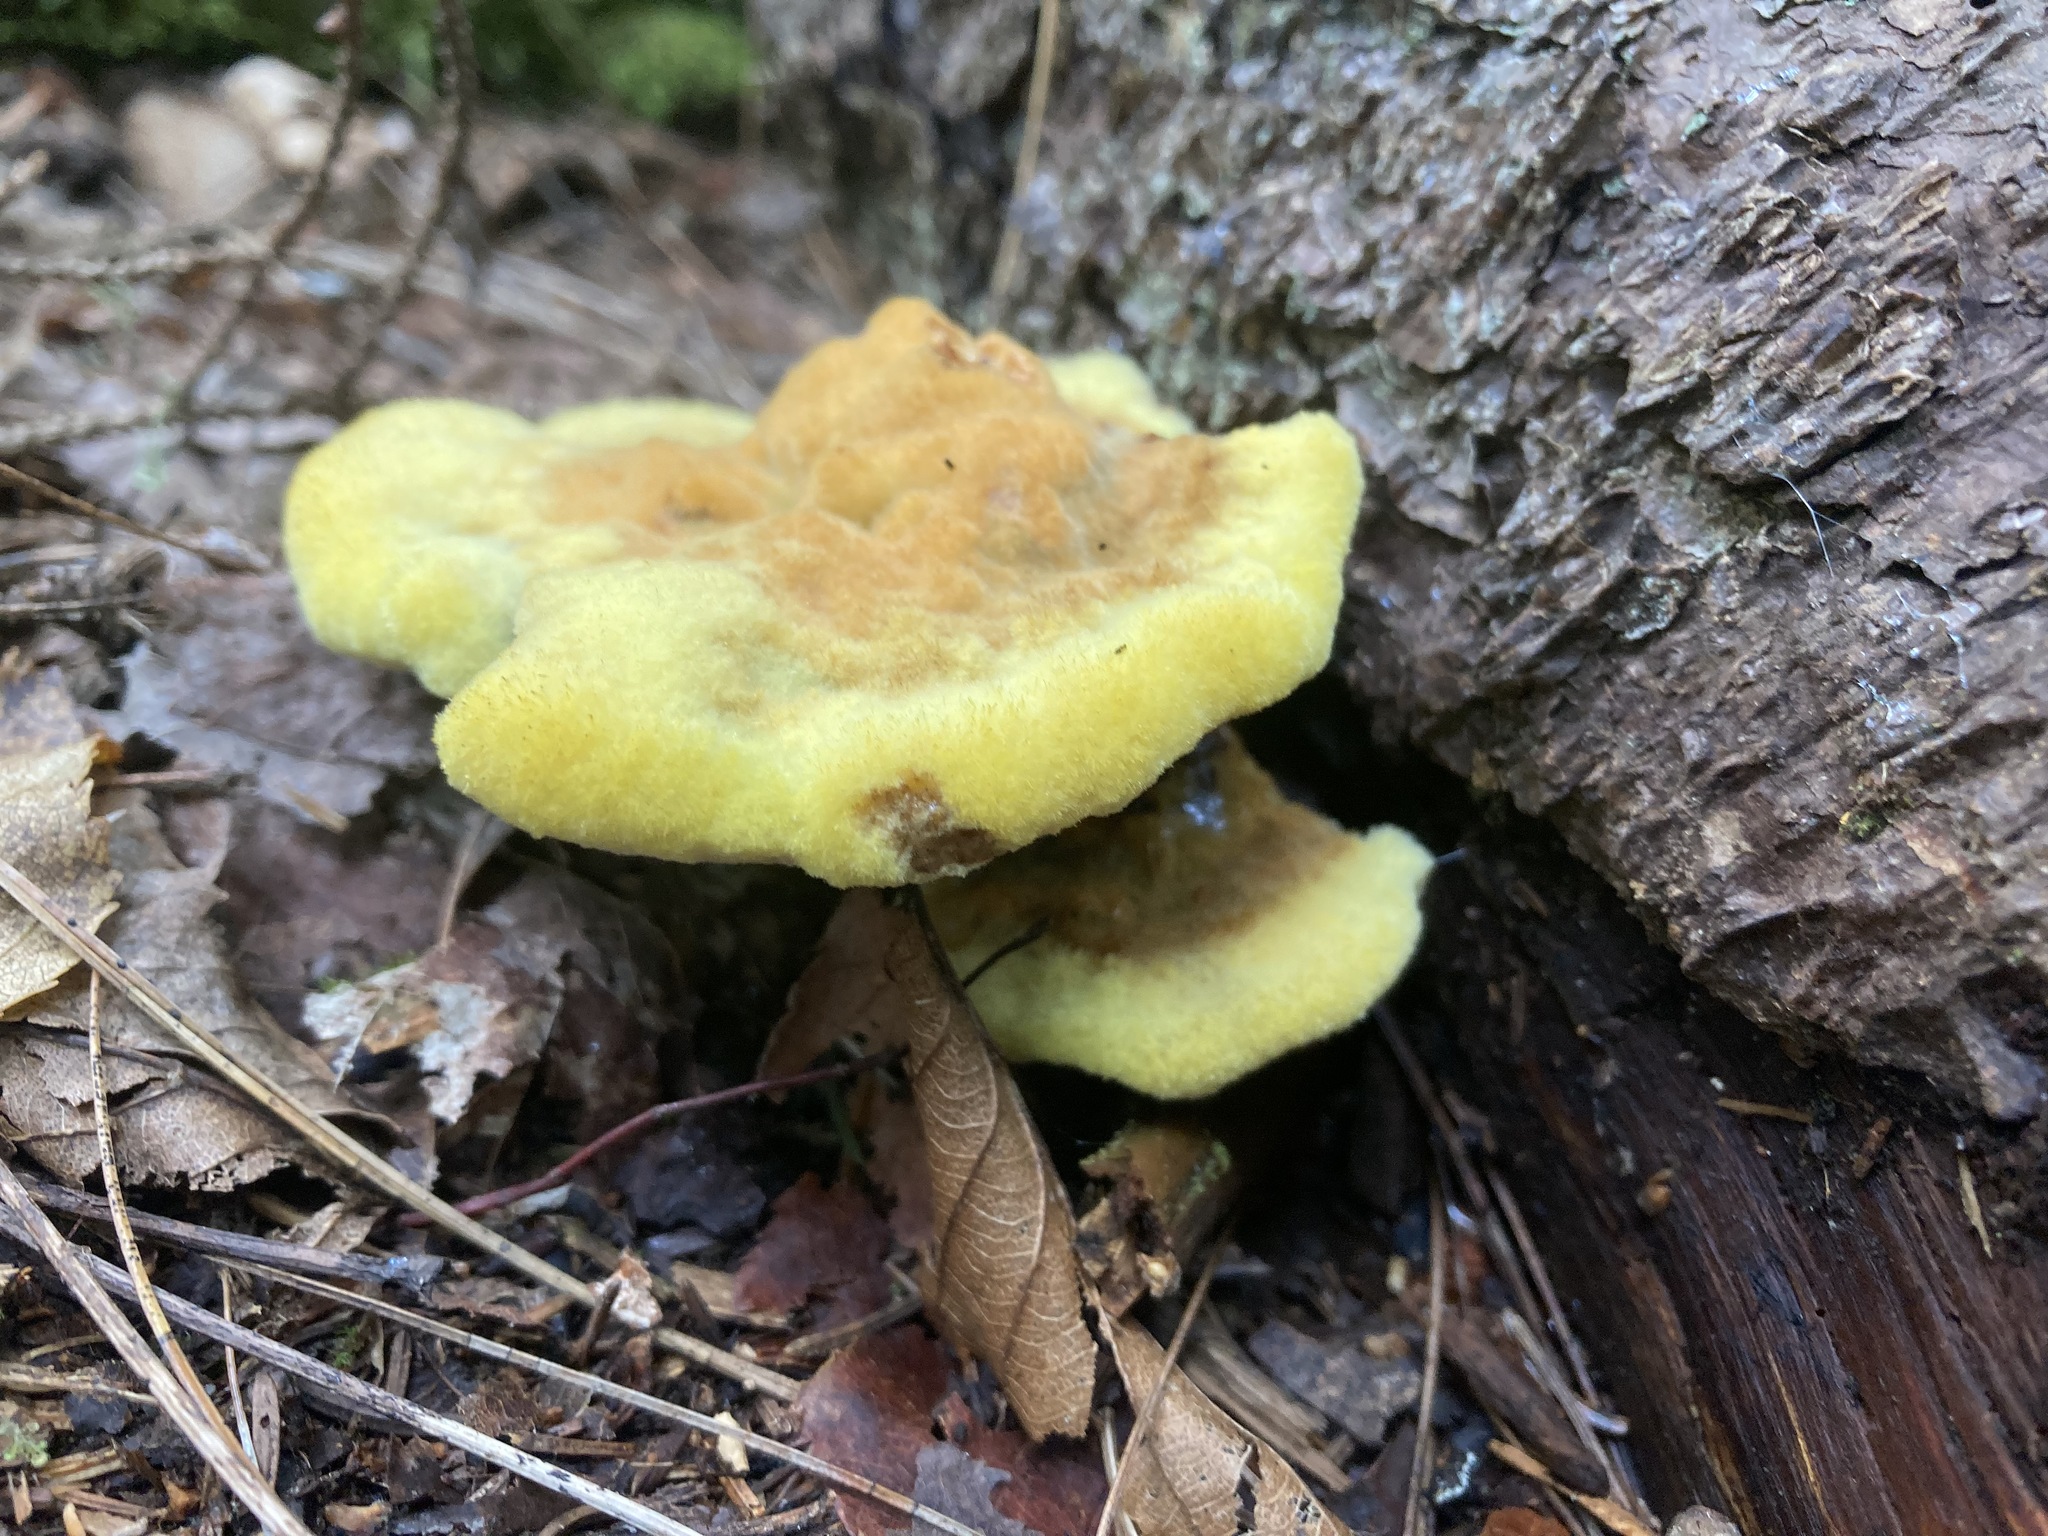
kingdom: Fungi
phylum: Basidiomycota
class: Agaricomycetes
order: Polyporales
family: Laetiporaceae
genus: Phaeolus
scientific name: Phaeolus schweinitzii
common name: Dyer's mazegill
